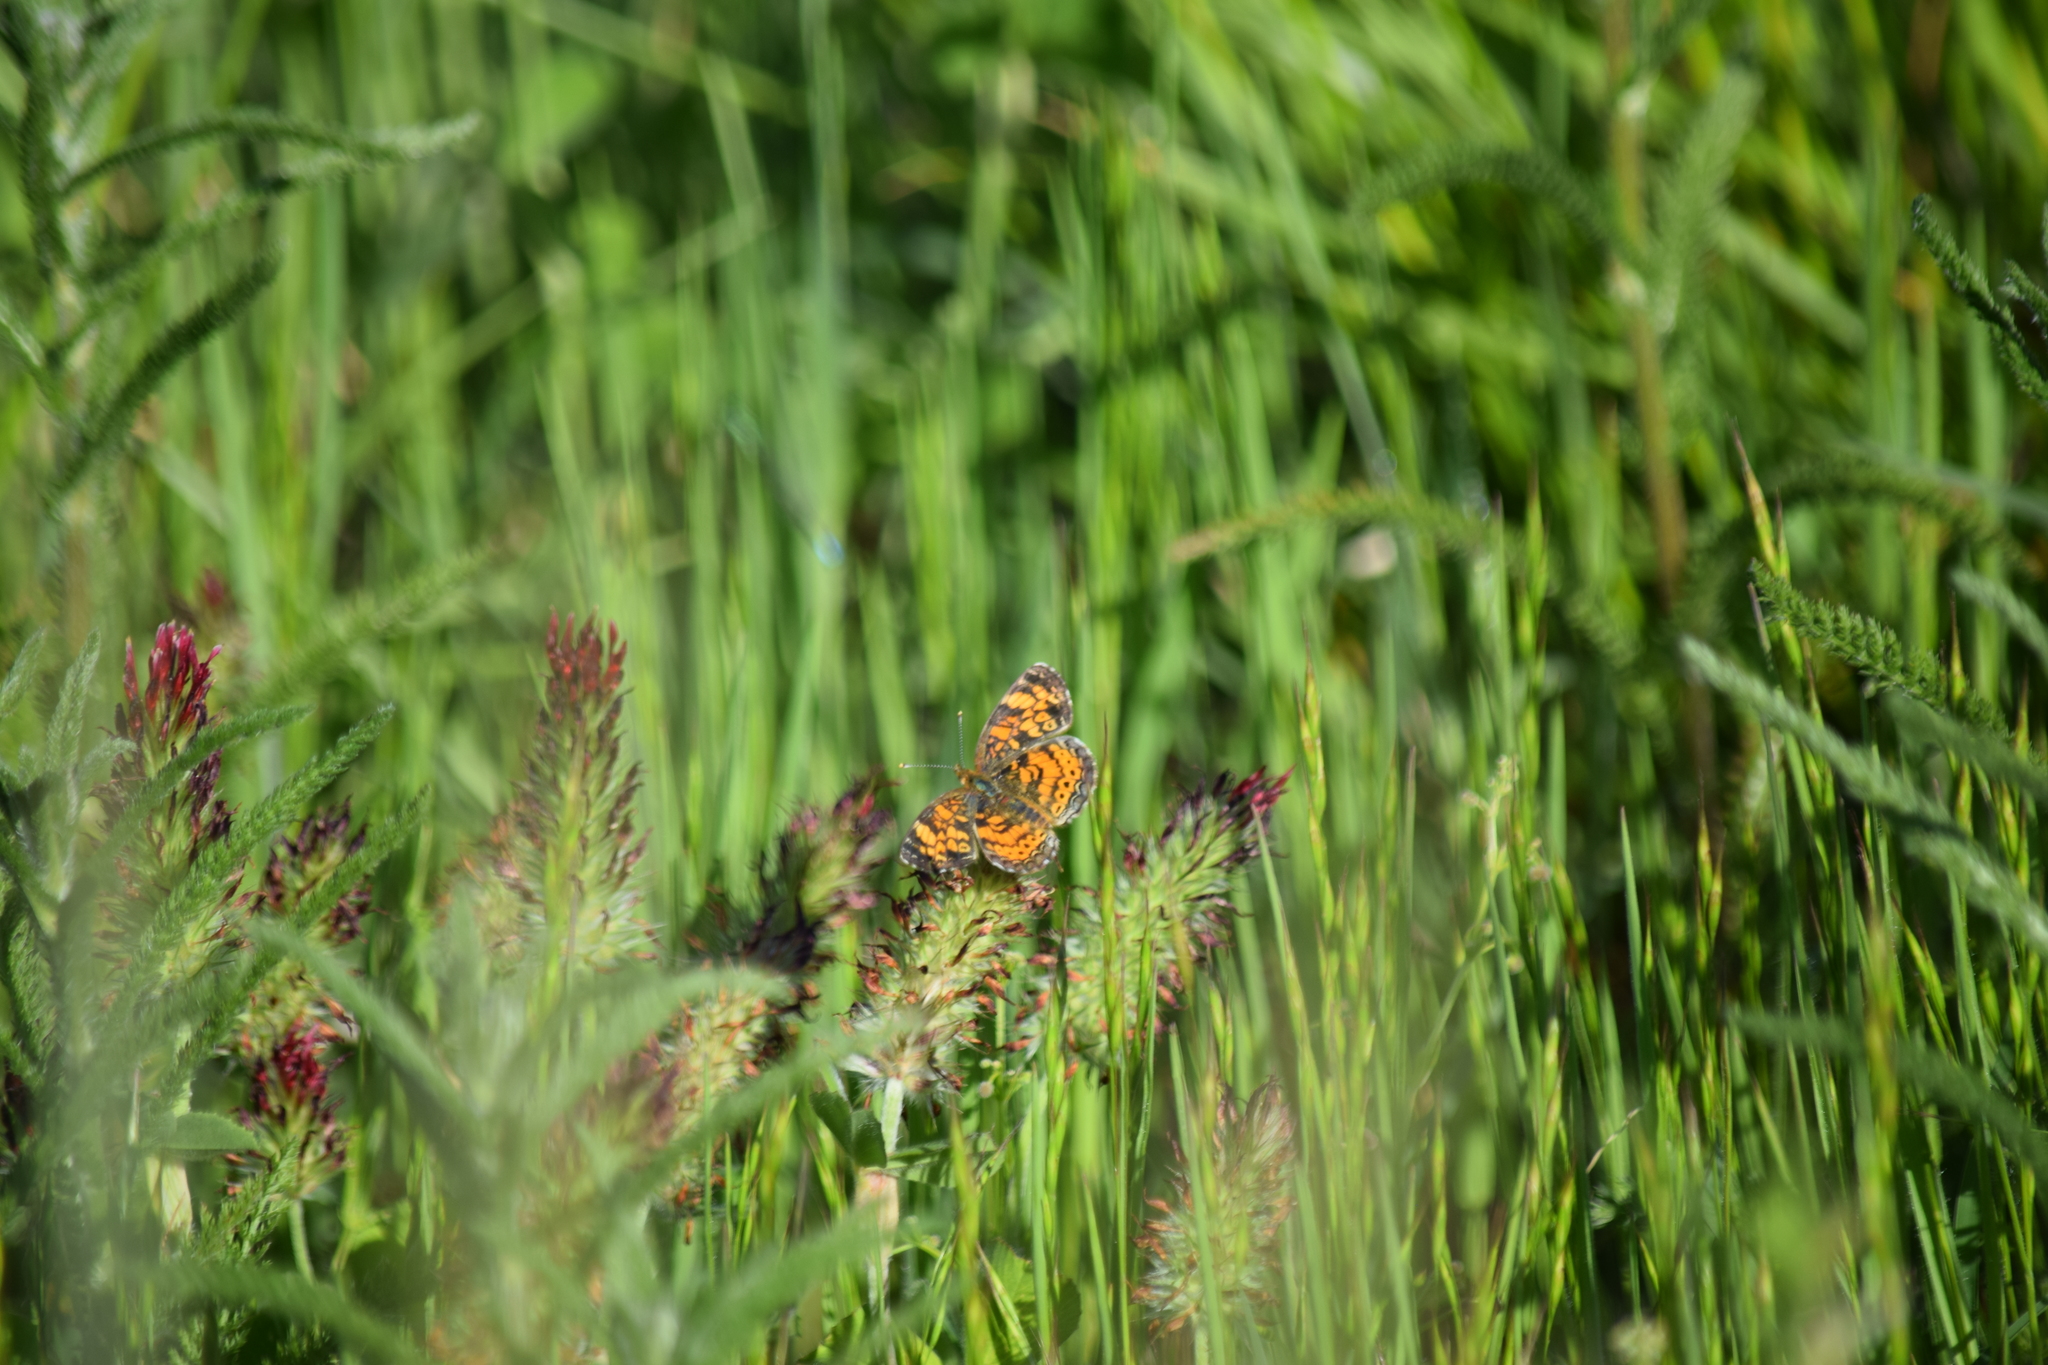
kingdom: Animalia
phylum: Arthropoda
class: Insecta
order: Lepidoptera
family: Nymphalidae
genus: Phyciodes
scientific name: Phyciodes tharos
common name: Pearl crescent
